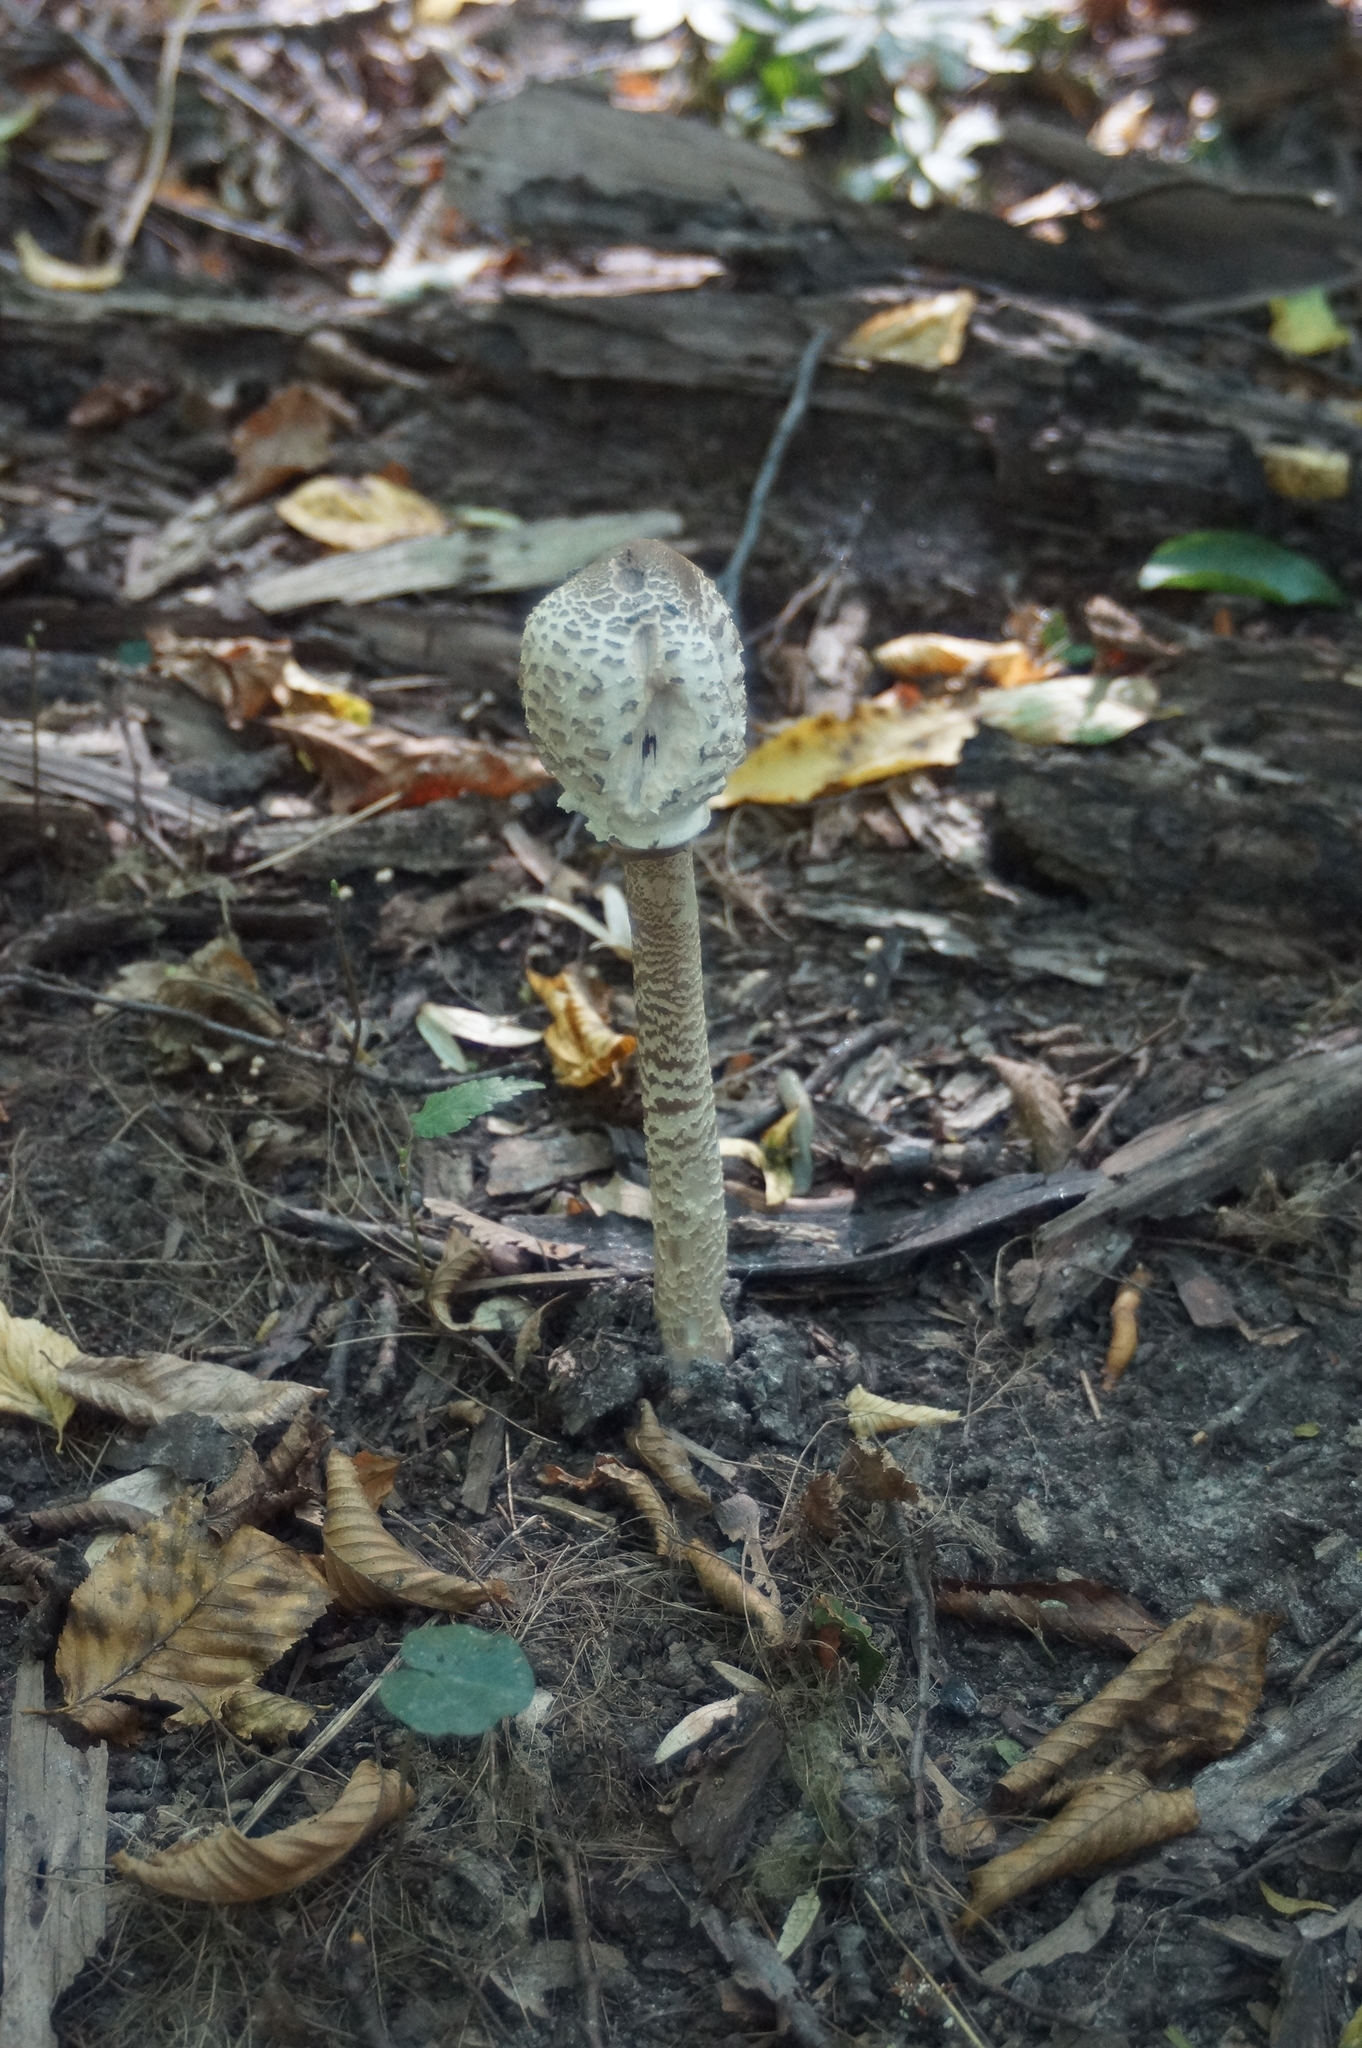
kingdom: Fungi
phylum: Basidiomycota
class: Agaricomycetes
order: Agaricales
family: Agaricaceae
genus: Macrolepiota
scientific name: Macrolepiota procera
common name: Parasol
